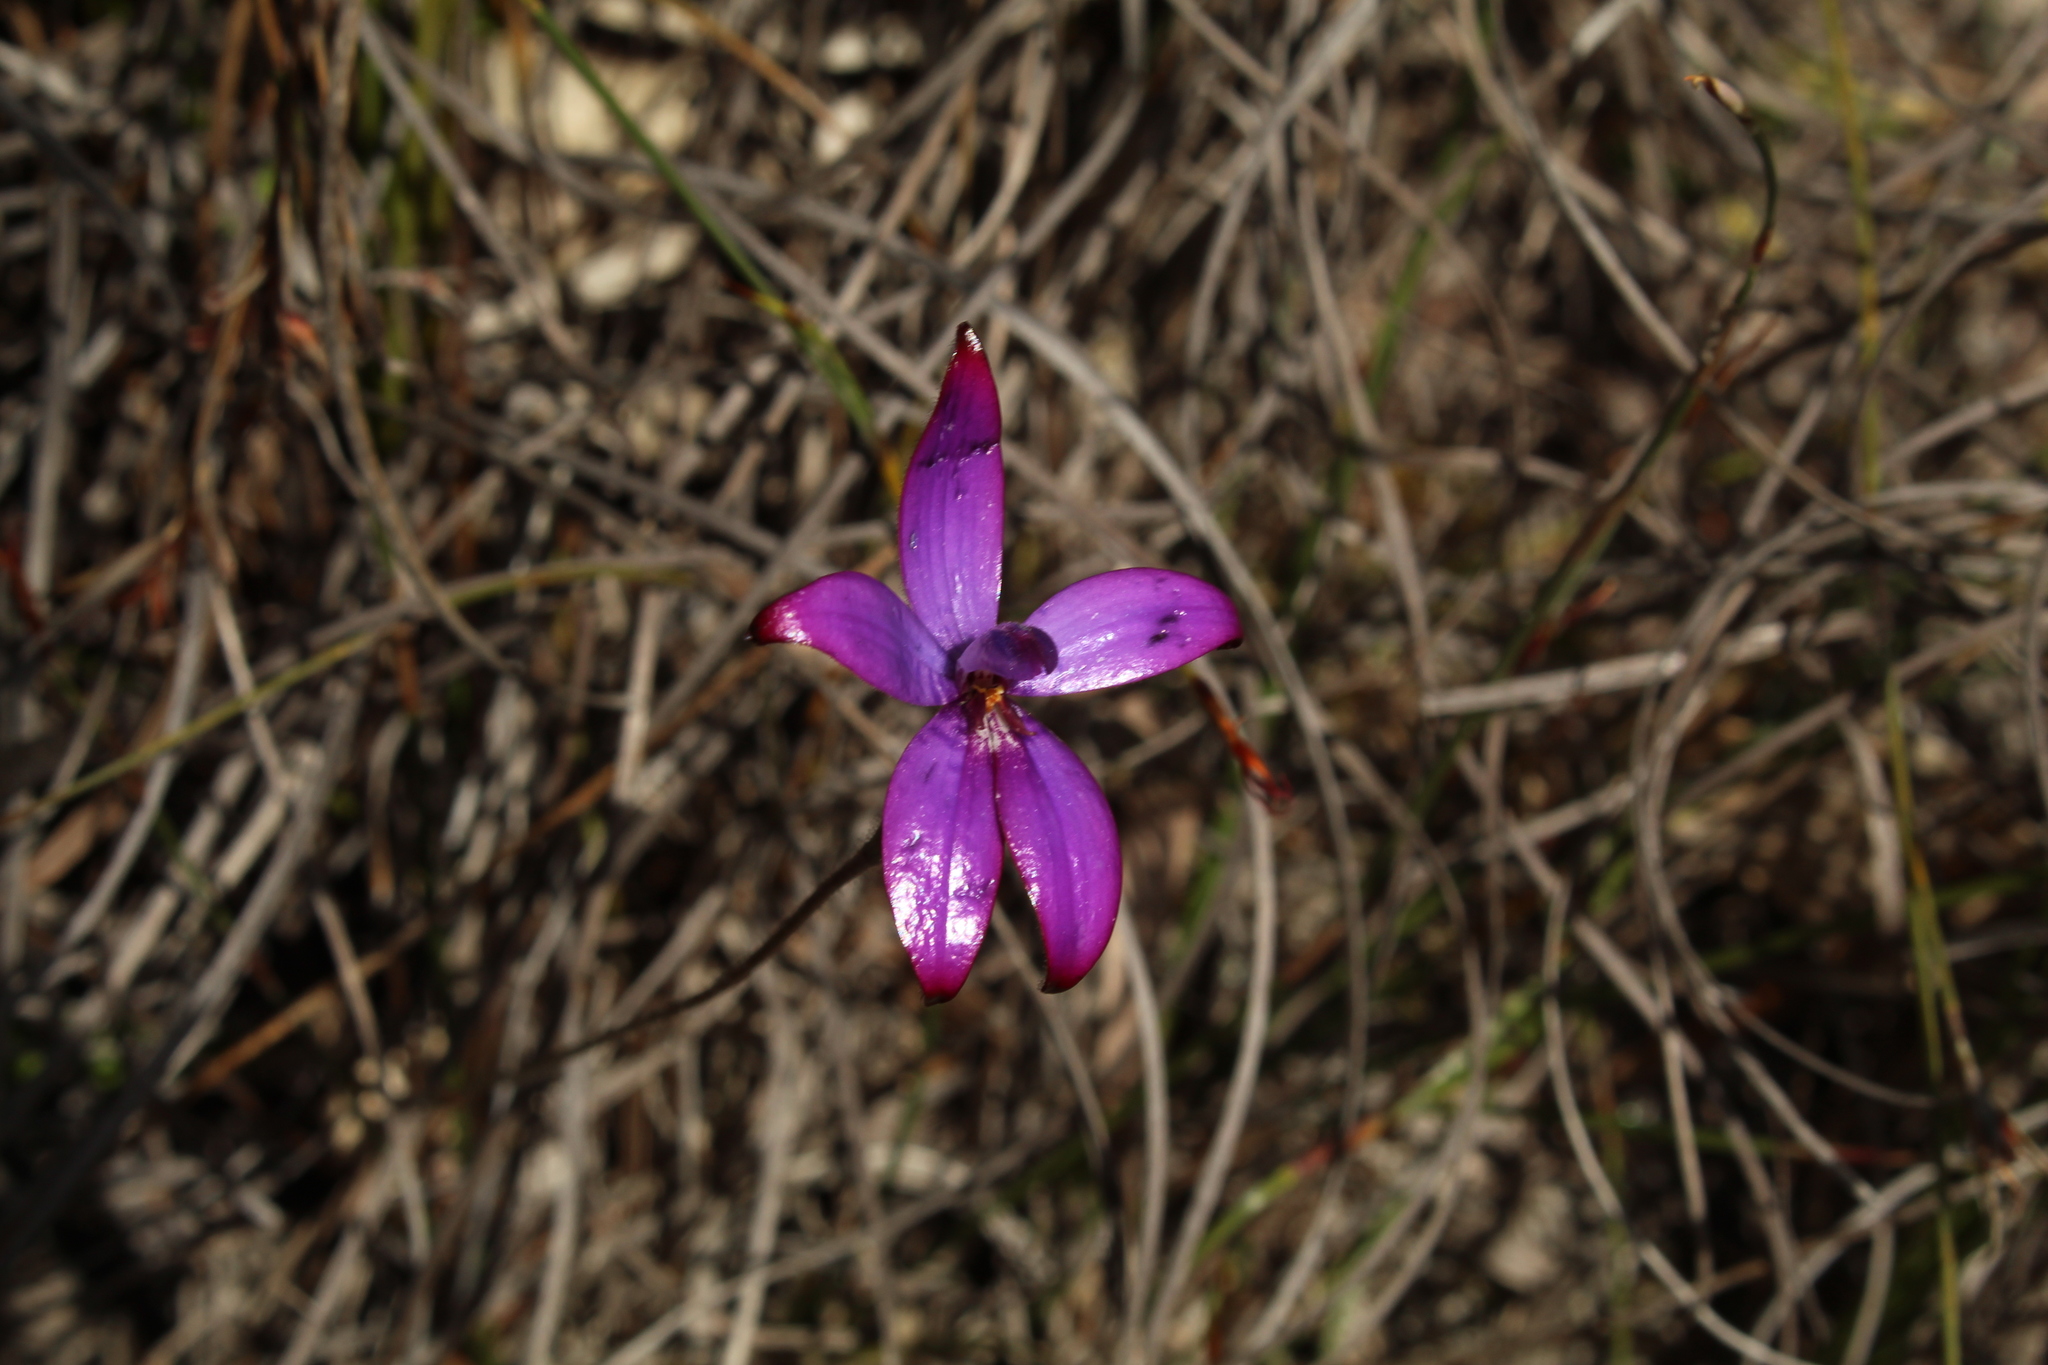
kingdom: Plantae
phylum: Tracheophyta
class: Liliopsida
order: Asparagales
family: Orchidaceae
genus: Caladenia
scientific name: Caladenia brunonis
